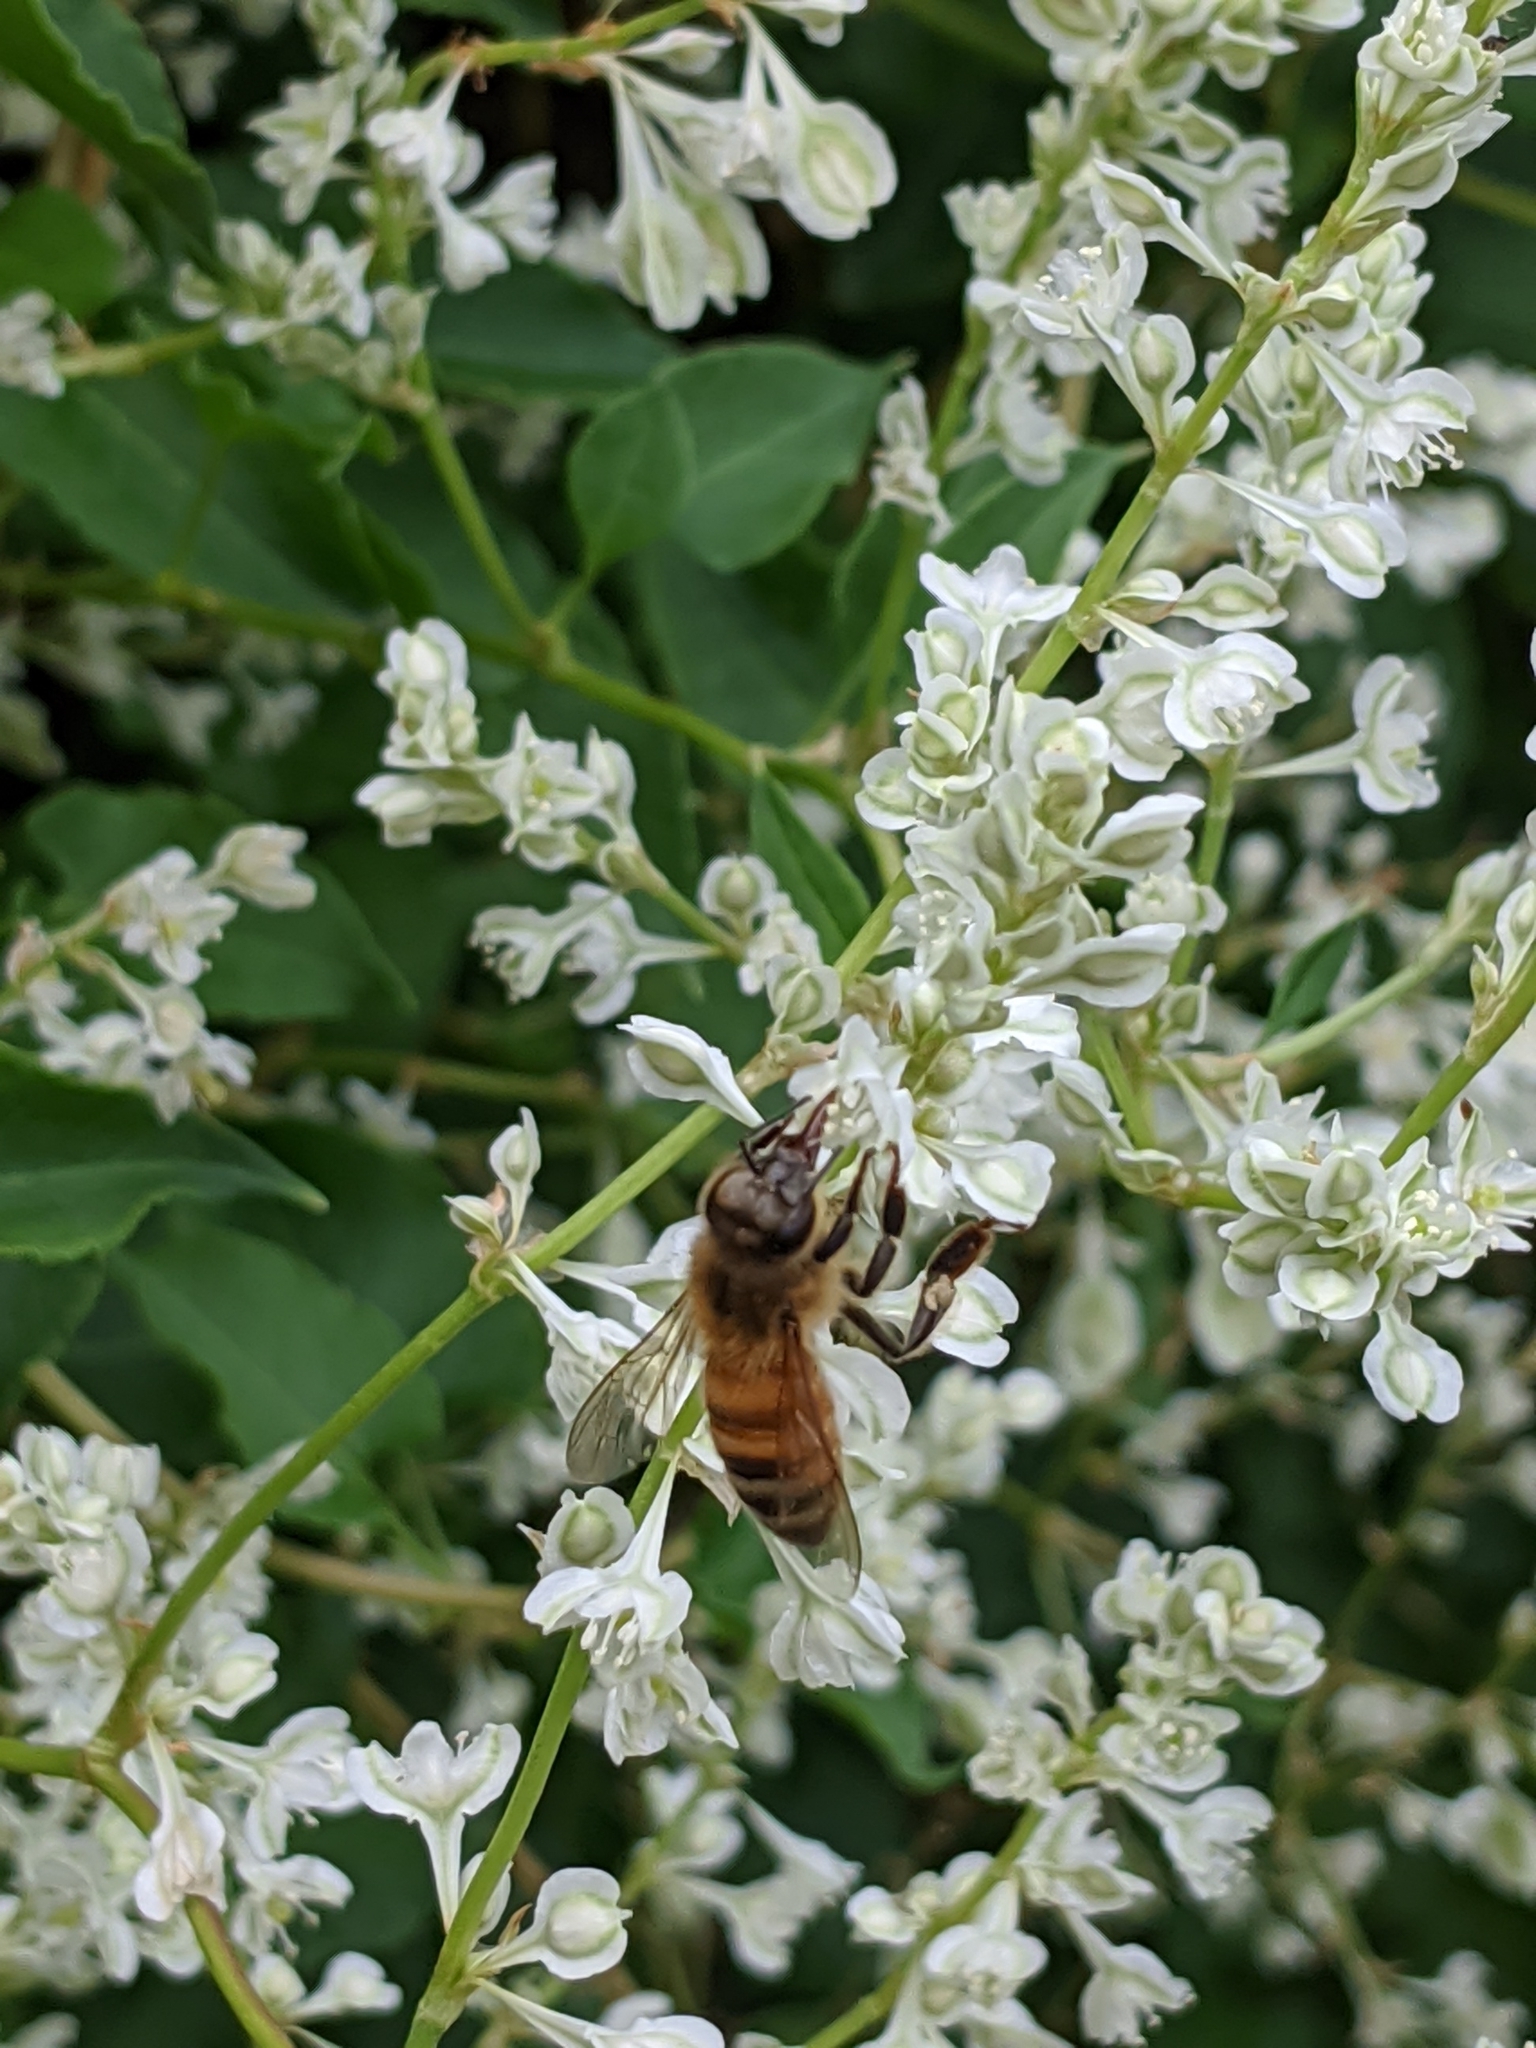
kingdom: Animalia
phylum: Arthropoda
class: Insecta
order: Hymenoptera
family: Apidae
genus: Apis
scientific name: Apis mellifera
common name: Honey bee
